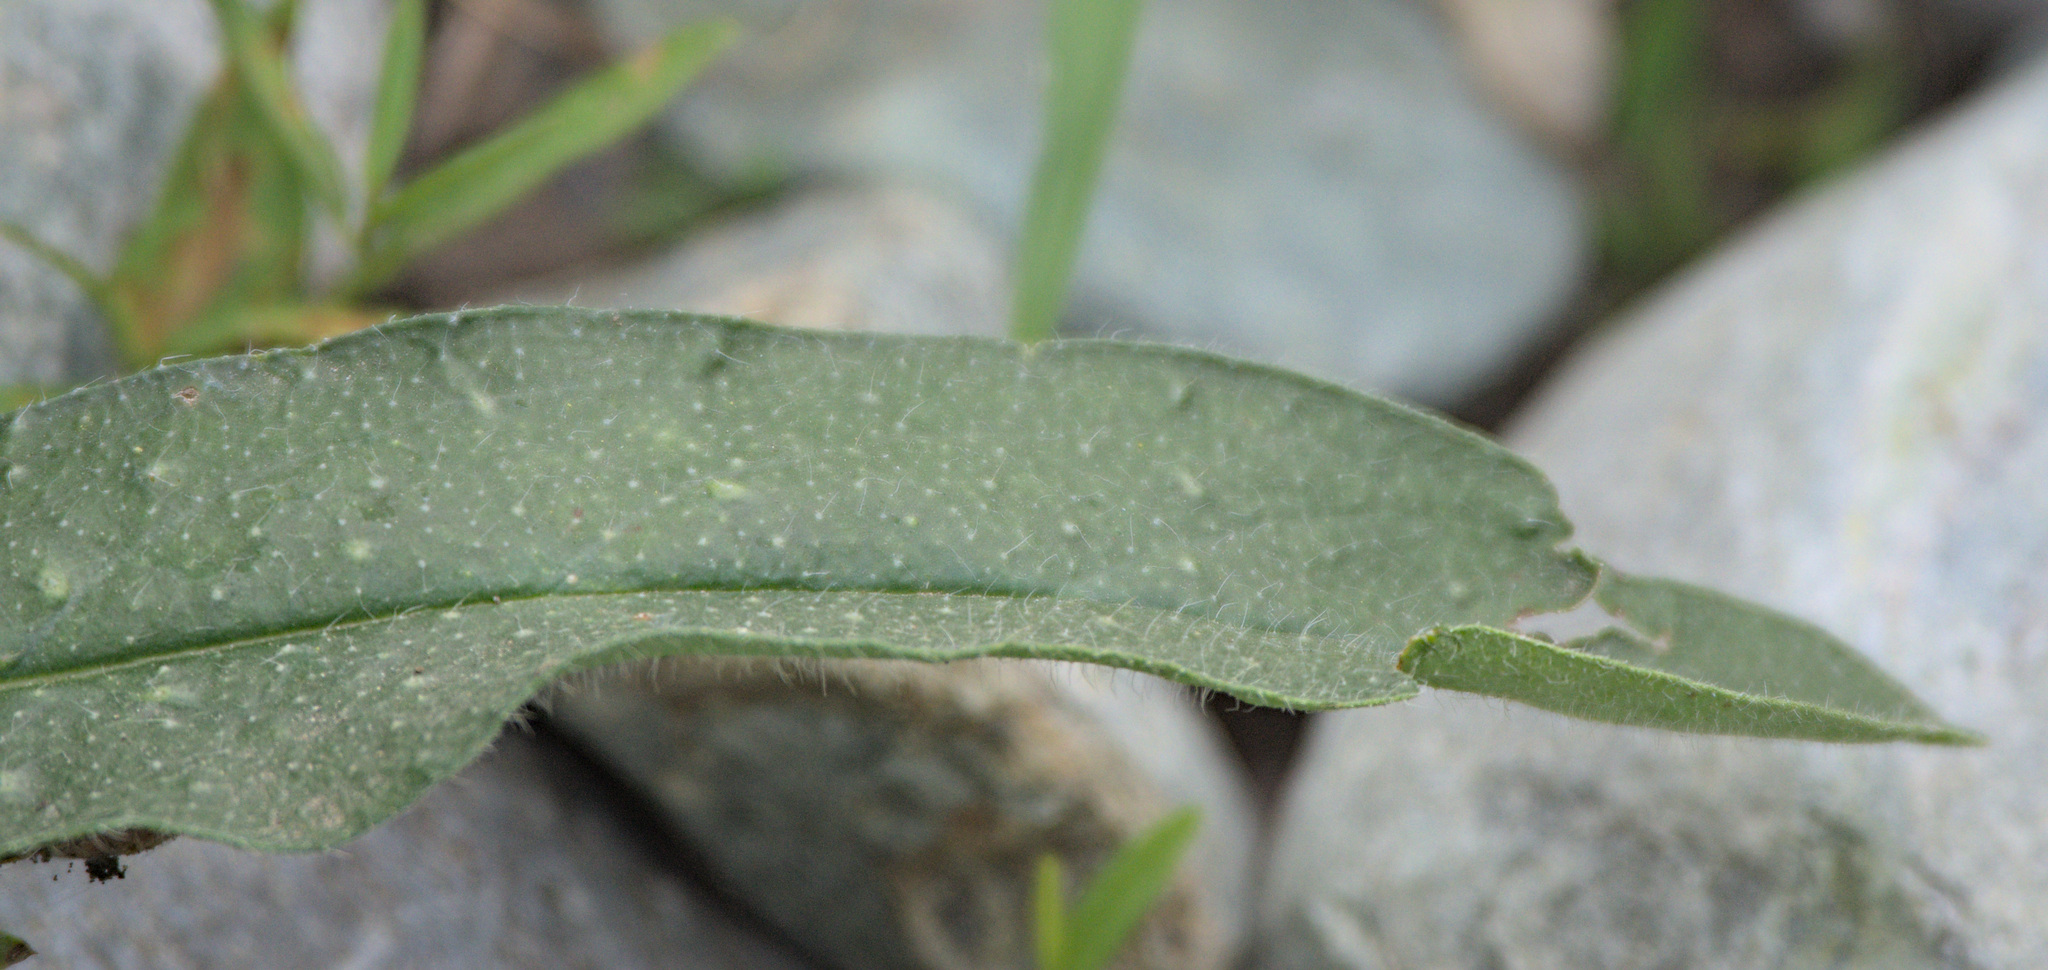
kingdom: Plantae
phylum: Tracheophyta
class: Magnoliopsida
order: Boraginales
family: Boraginaceae
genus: Echium
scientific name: Echium vulgare
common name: Common viper's bugloss
